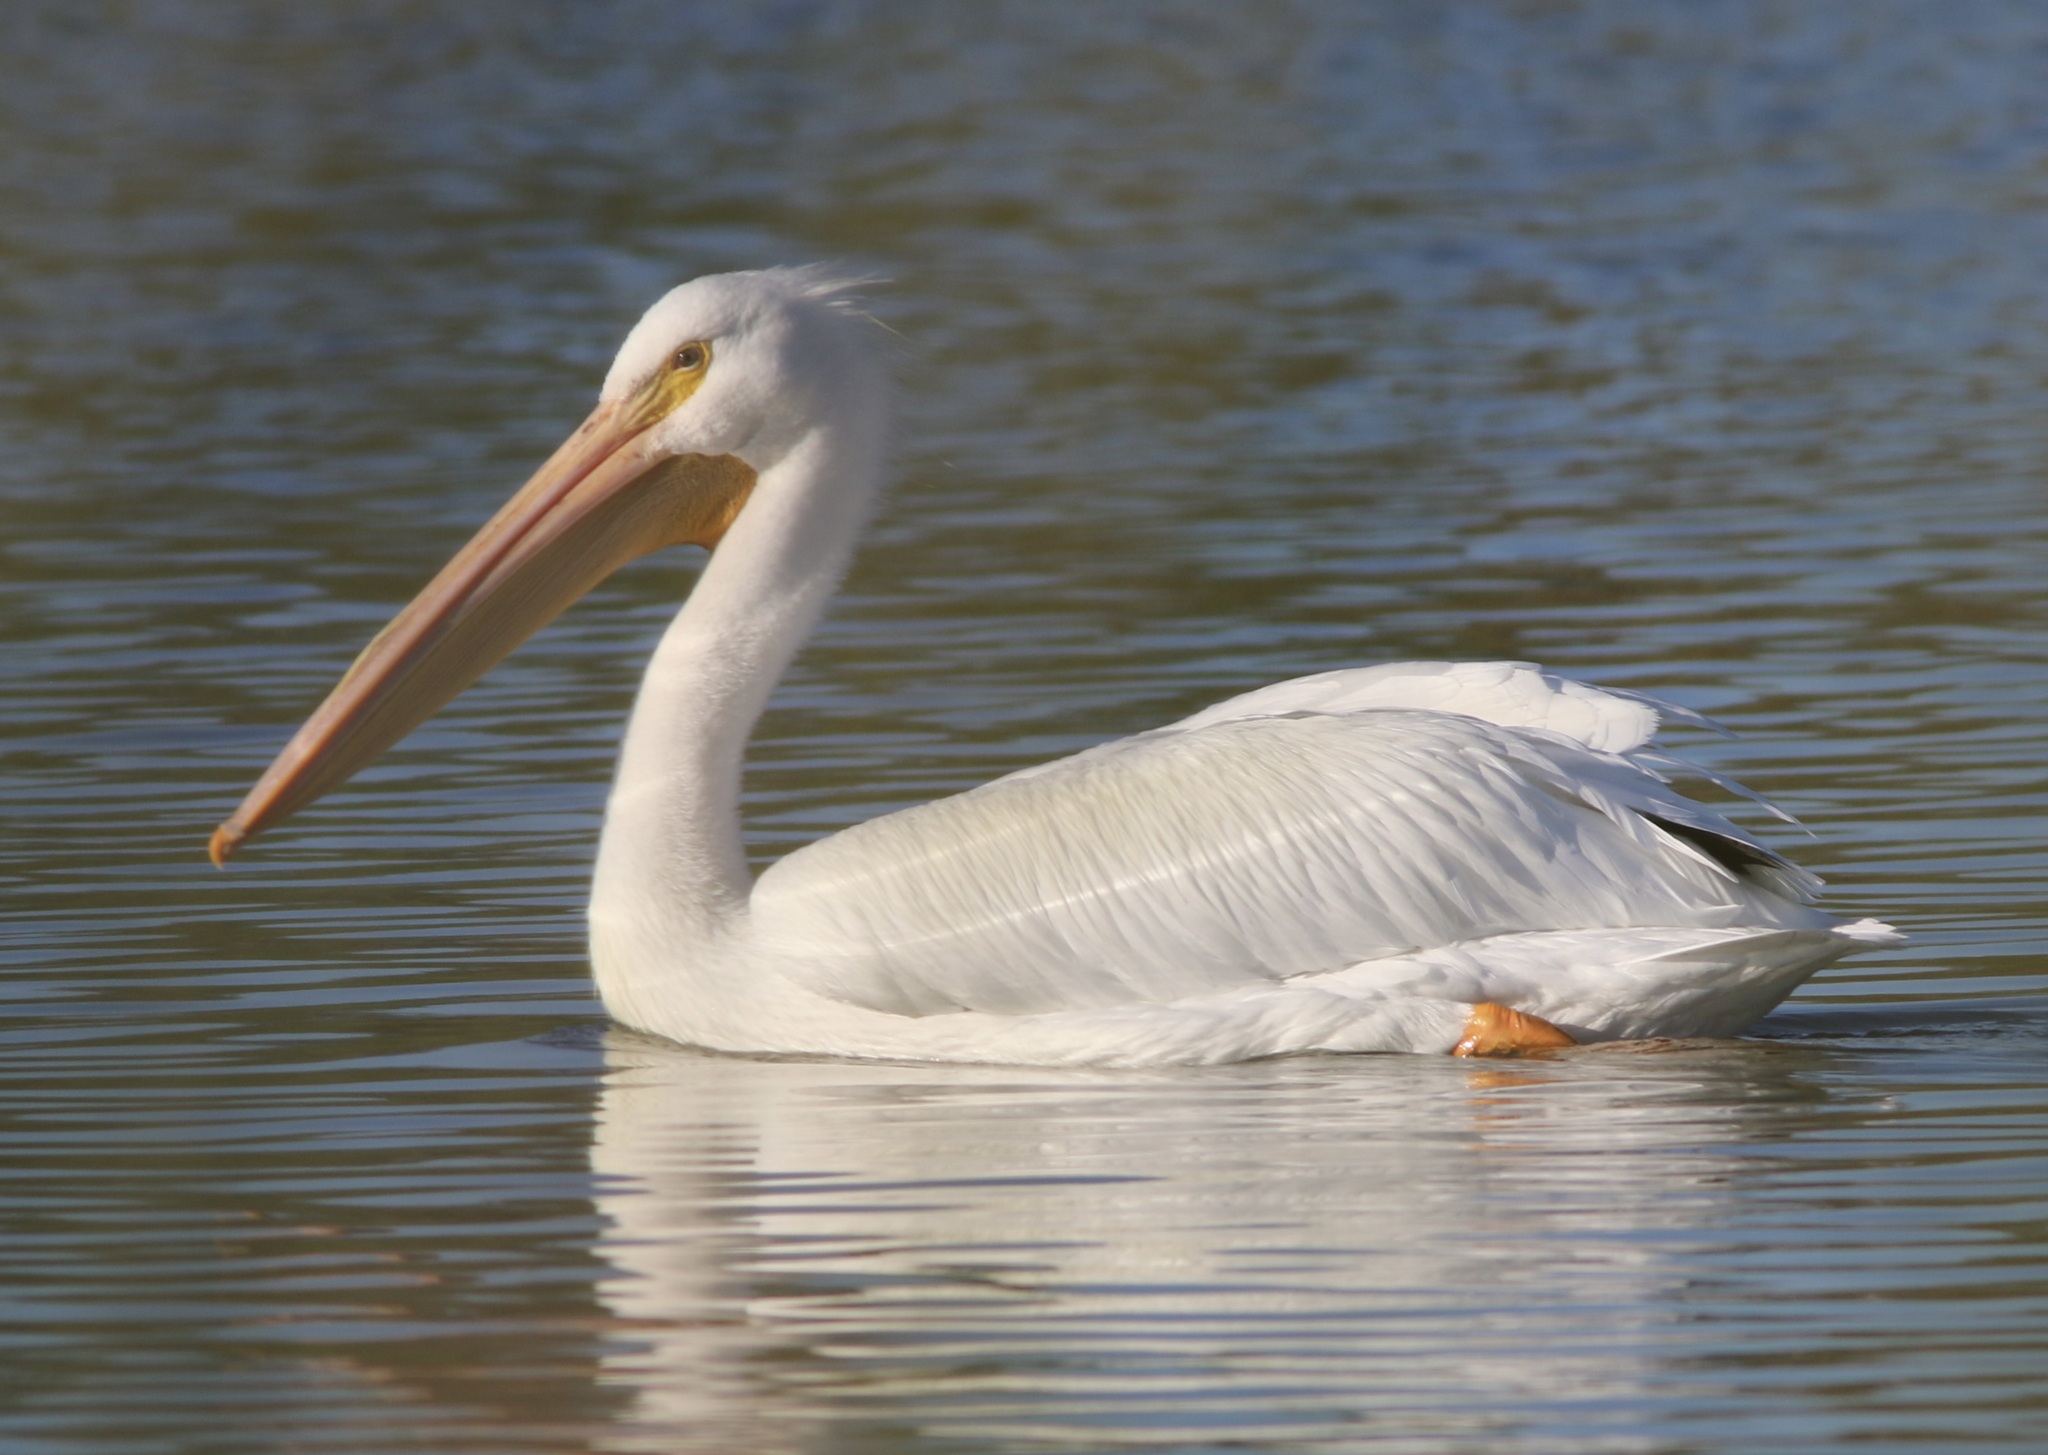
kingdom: Animalia
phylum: Chordata
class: Aves
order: Pelecaniformes
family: Pelecanidae
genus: Pelecanus
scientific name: Pelecanus erythrorhynchos
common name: American white pelican
